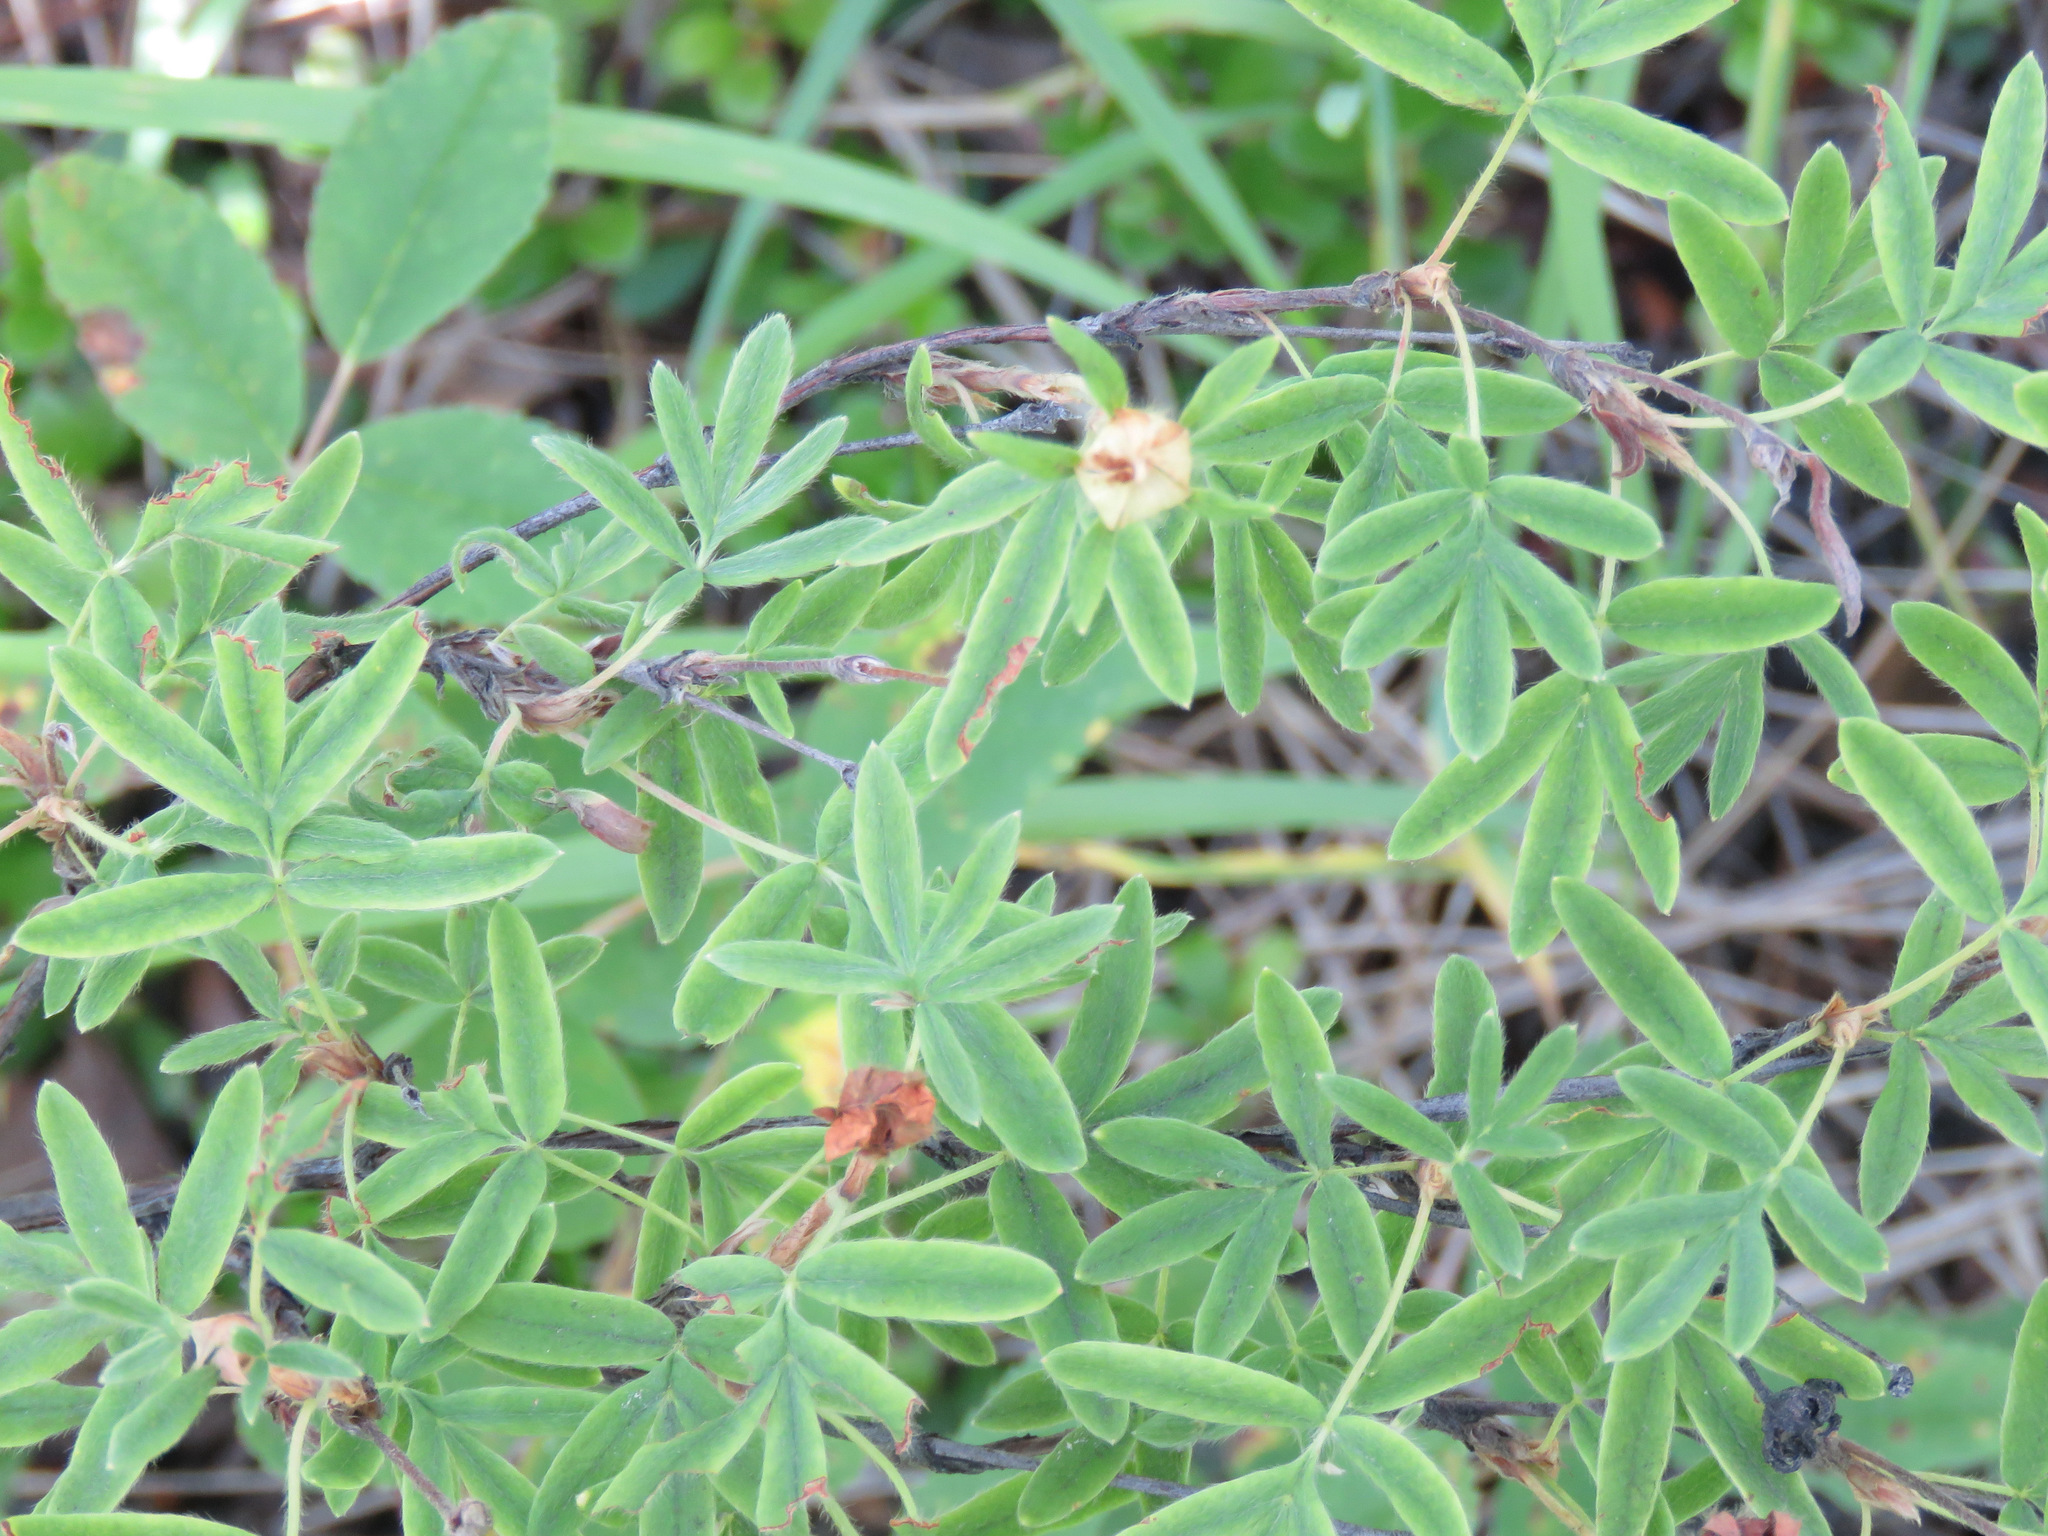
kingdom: Plantae
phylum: Tracheophyta
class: Magnoliopsida
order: Rosales
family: Rosaceae
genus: Dasiphora
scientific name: Dasiphora fruticosa
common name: Shrubby cinquefoil
